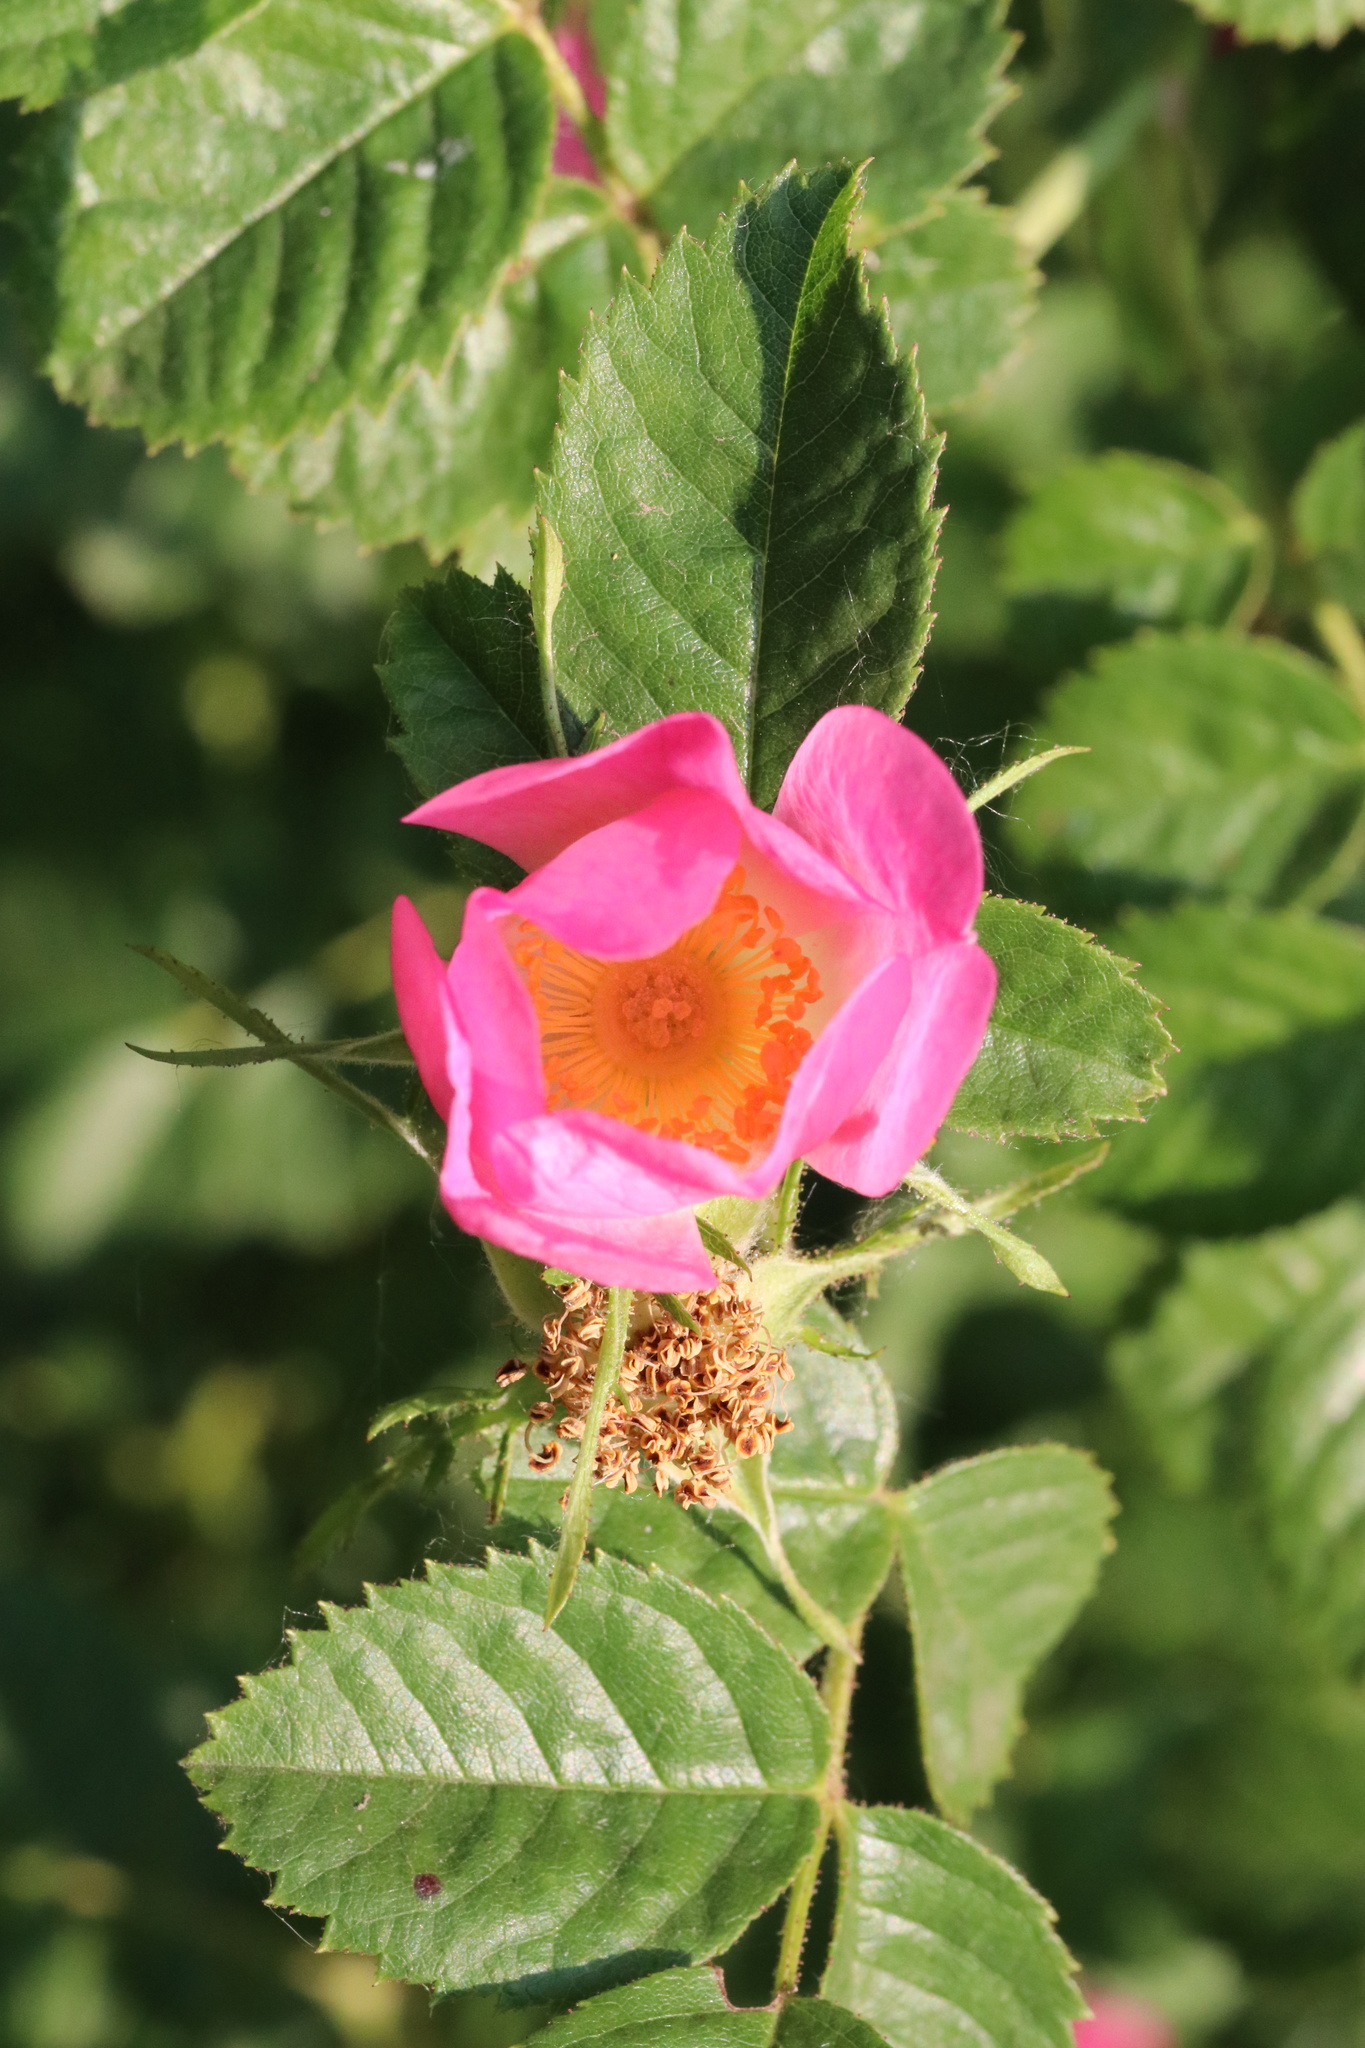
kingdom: Plantae
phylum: Tracheophyta
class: Magnoliopsida
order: Rosales
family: Rosaceae
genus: Rosa
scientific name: Rosa rubiginosa
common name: Sweet-briar
